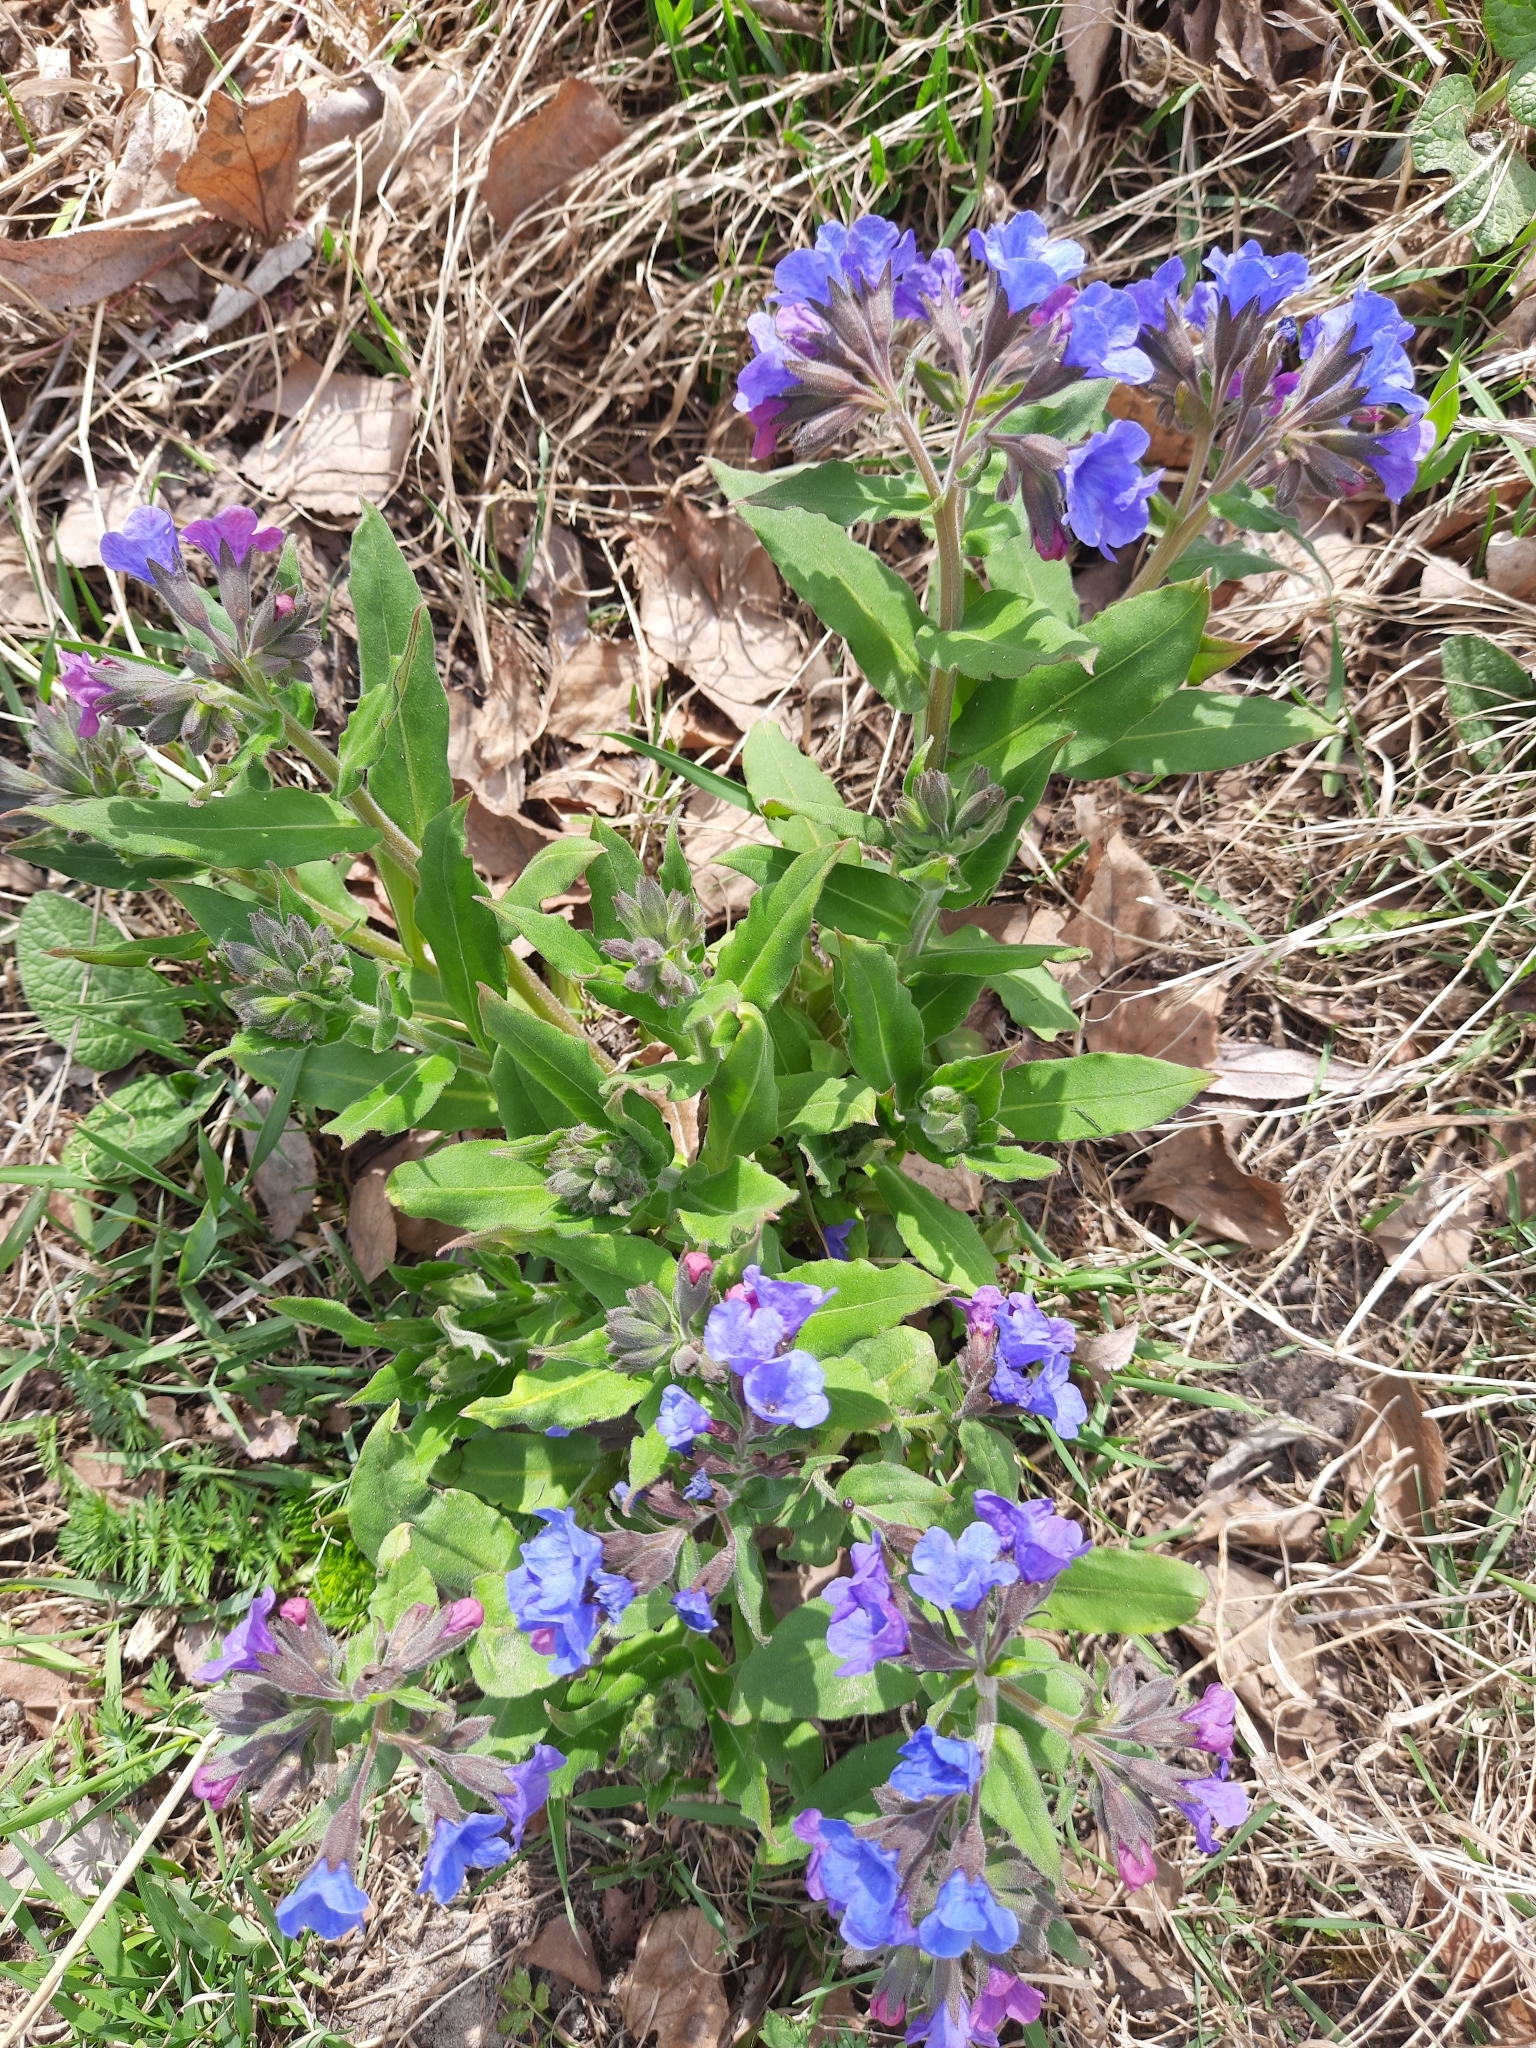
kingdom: Plantae
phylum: Tracheophyta
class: Magnoliopsida
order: Boraginales
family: Boraginaceae
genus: Pulmonaria
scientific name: Pulmonaria mollis
